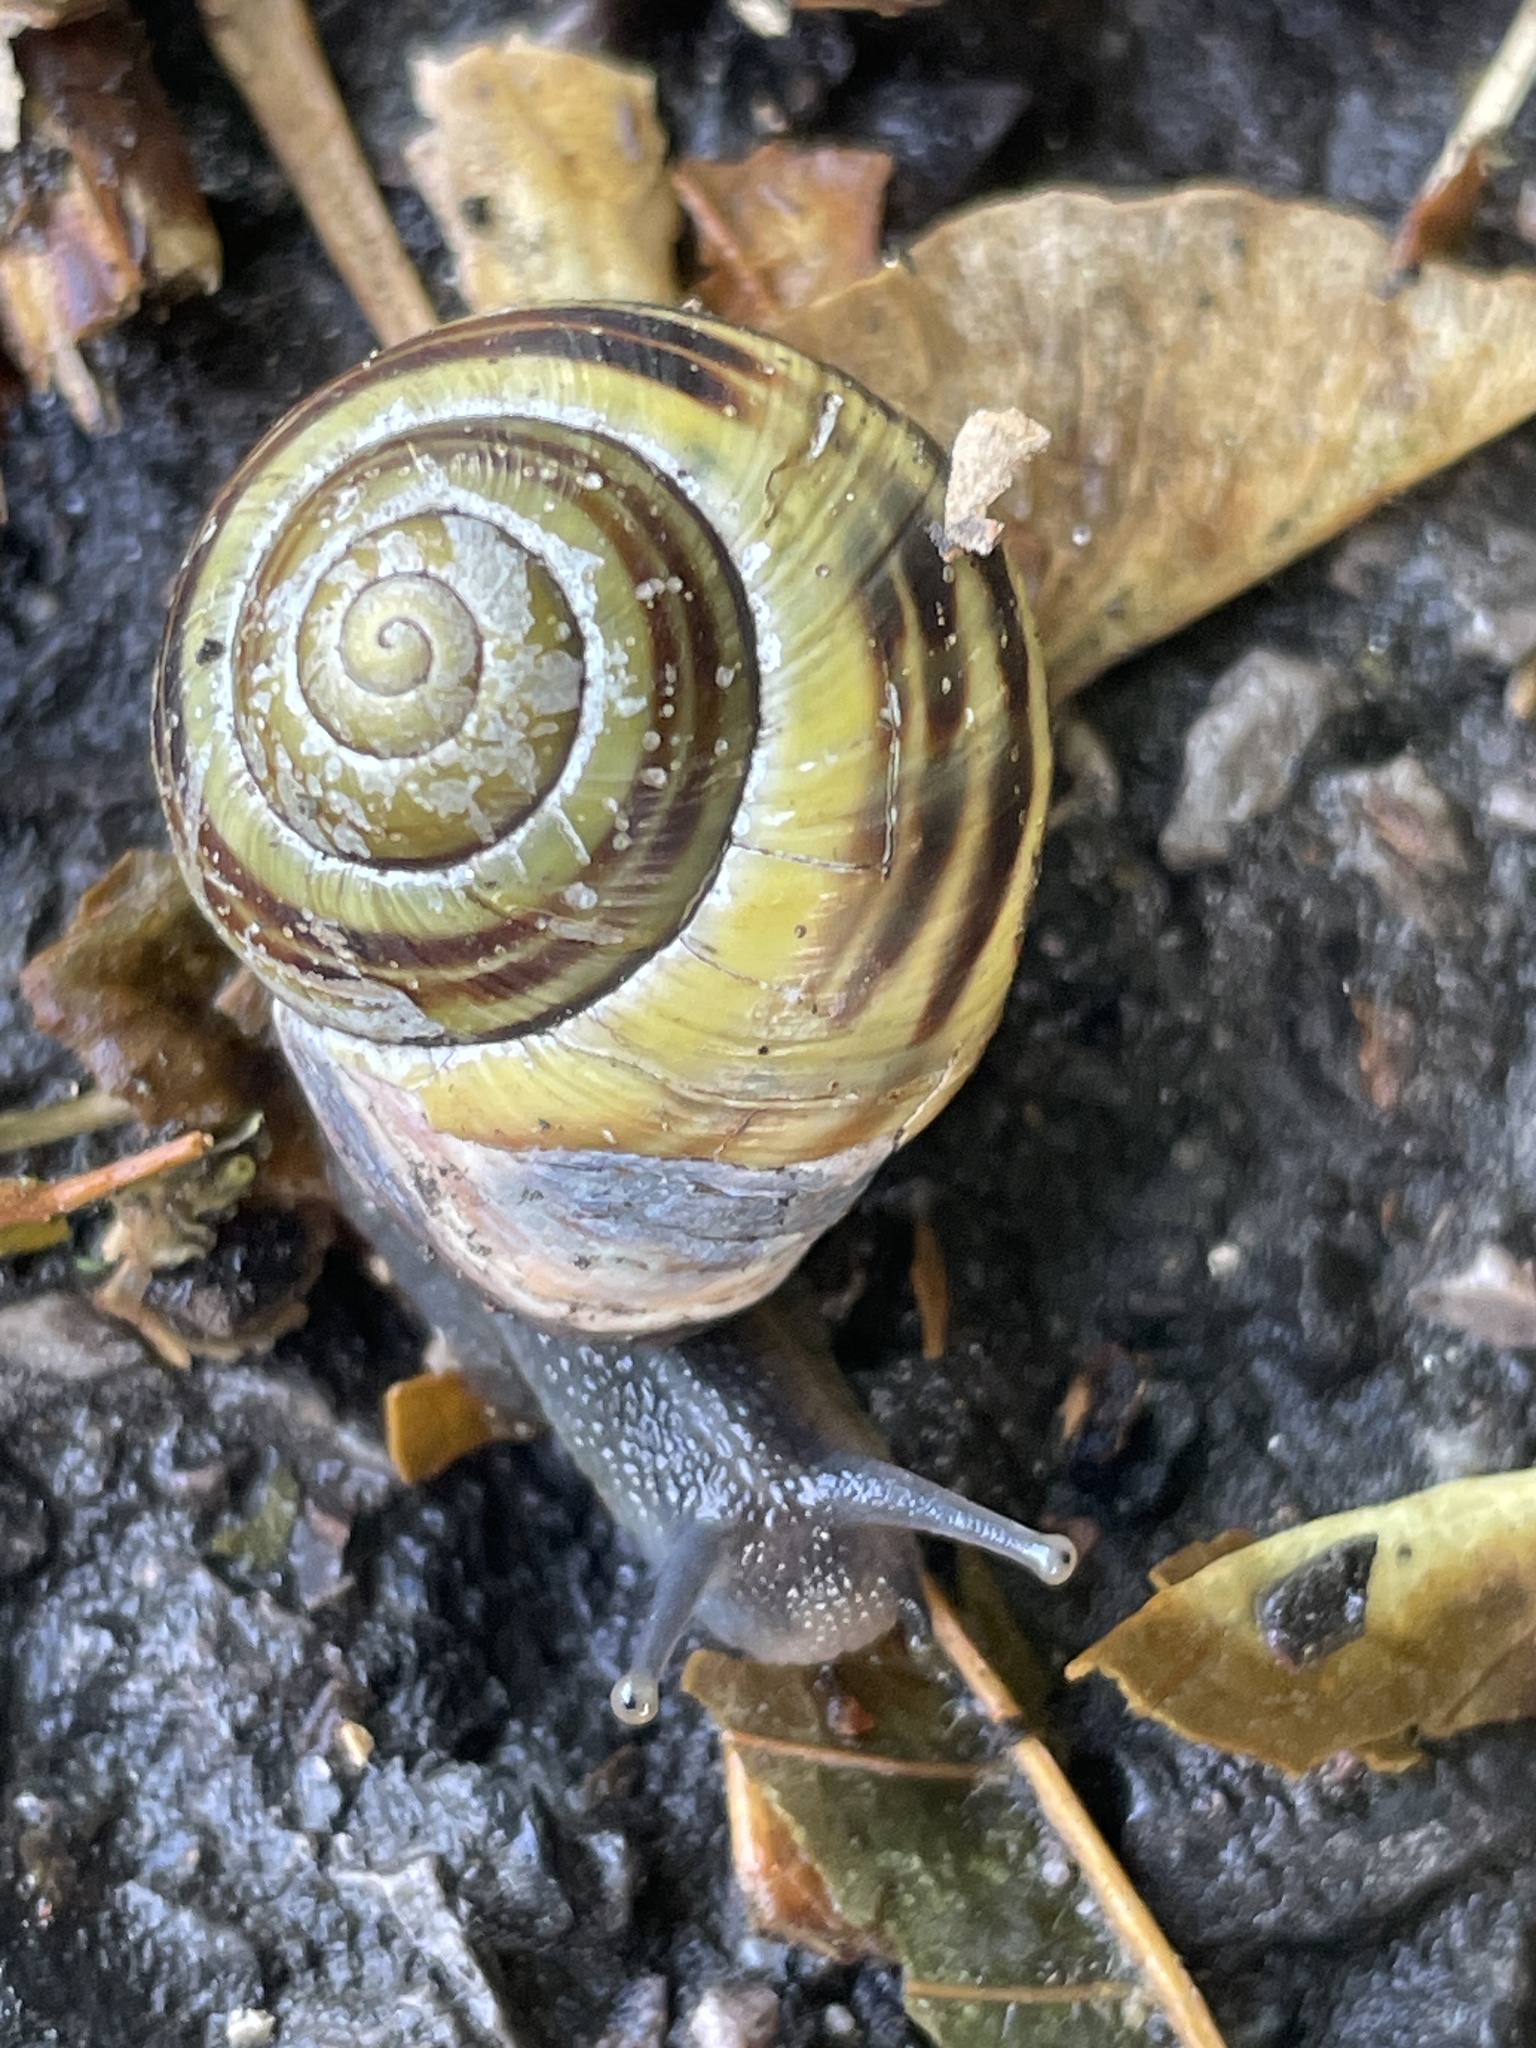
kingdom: Animalia
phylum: Mollusca
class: Gastropoda
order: Stylommatophora
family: Helicidae
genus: Cepaea
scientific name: Cepaea nemoralis
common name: Grovesnail
